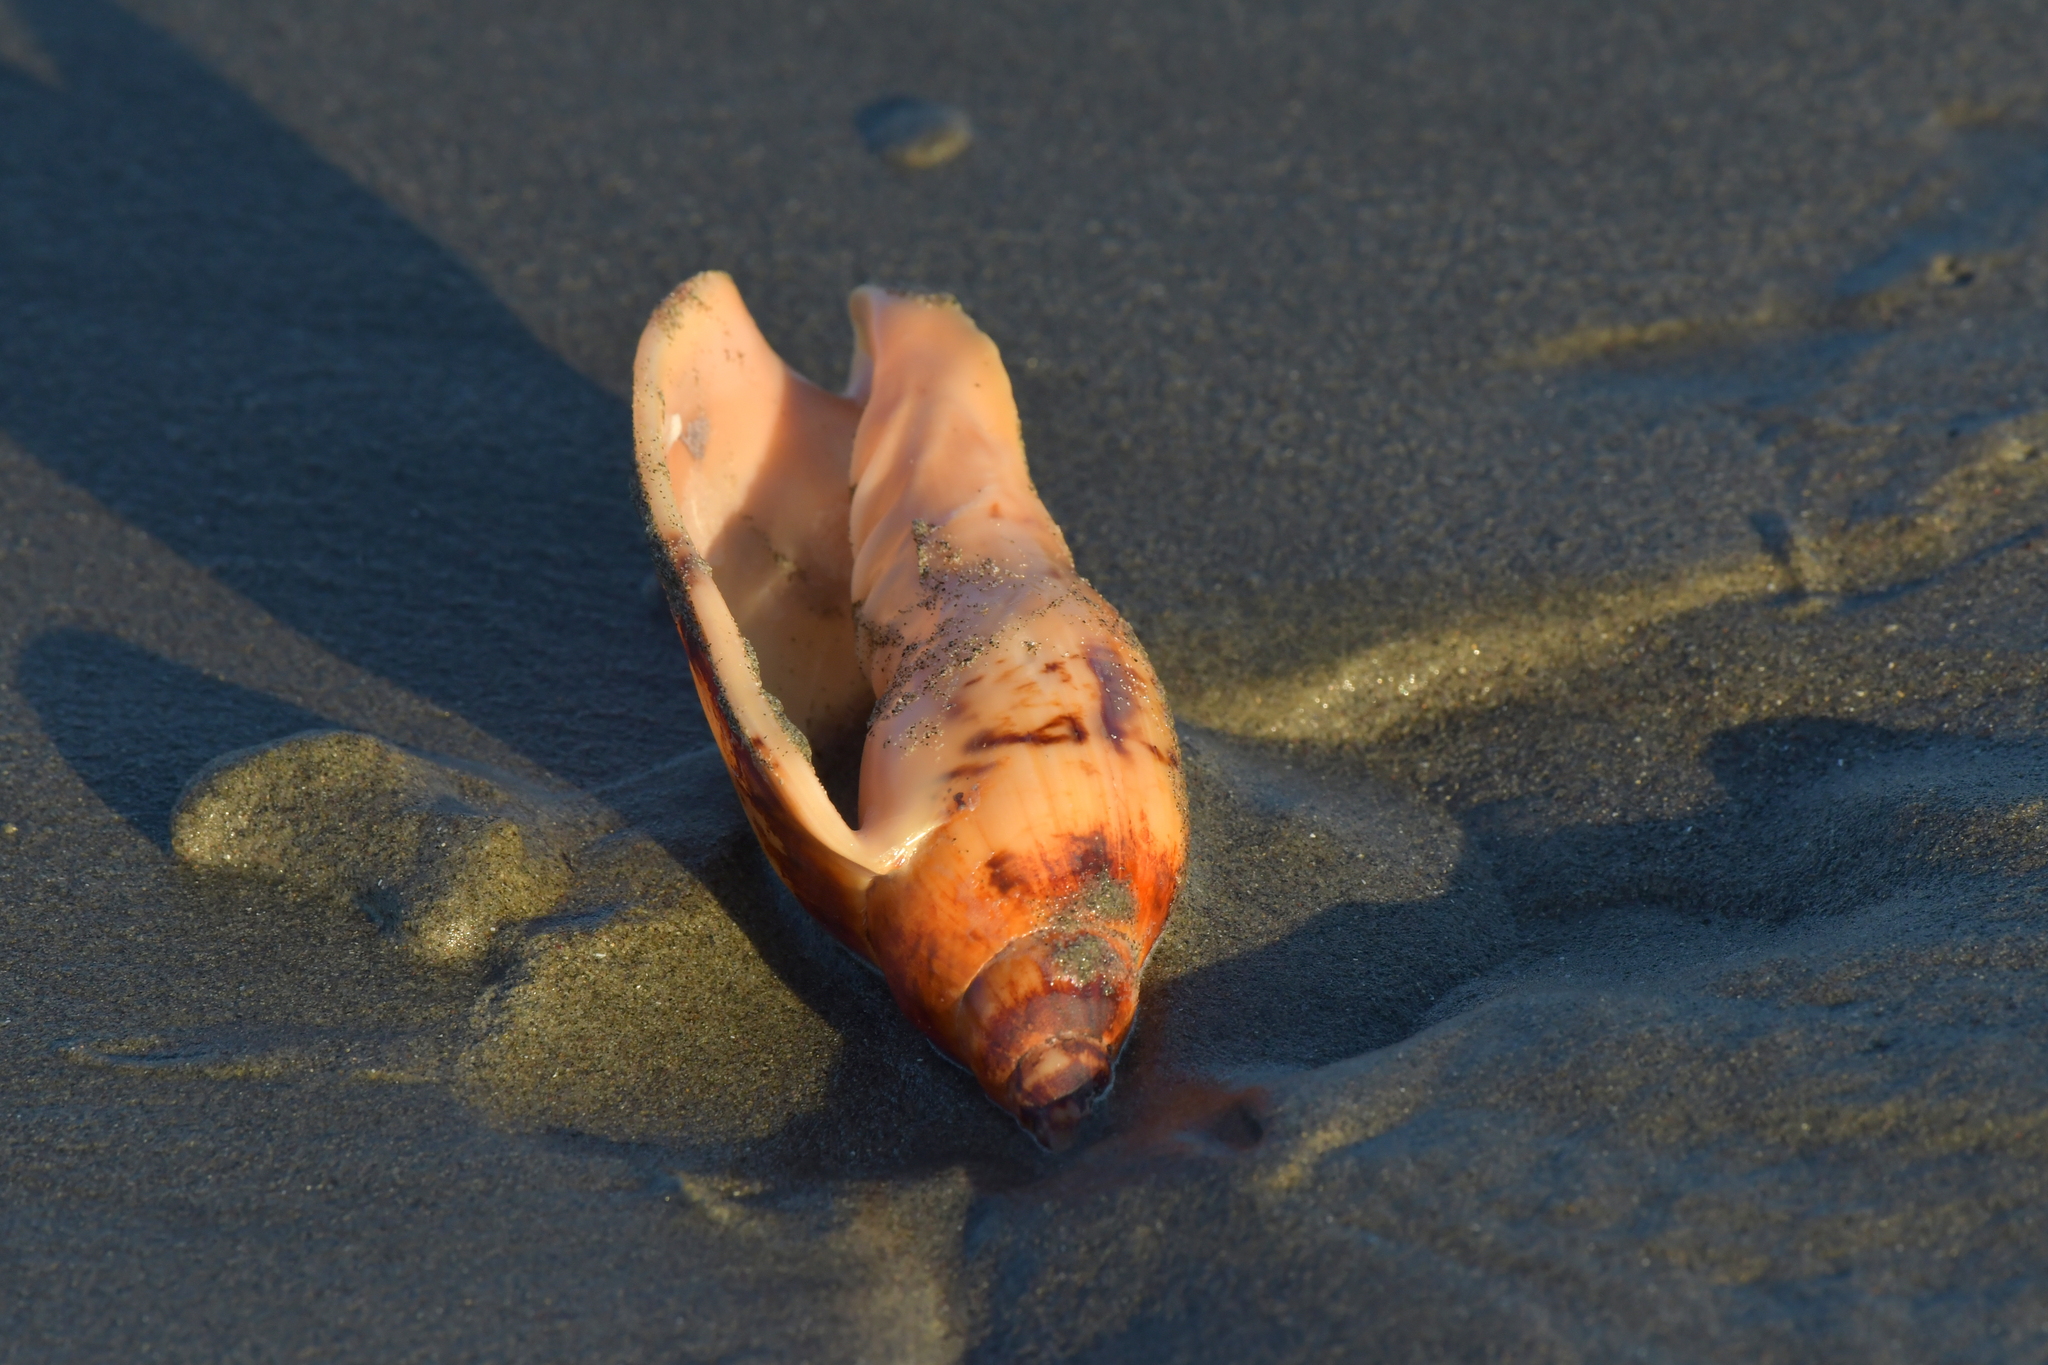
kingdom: Animalia
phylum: Mollusca
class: Gastropoda
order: Neogastropoda
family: Volutidae
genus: Alcithoe
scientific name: Alcithoe arabica
